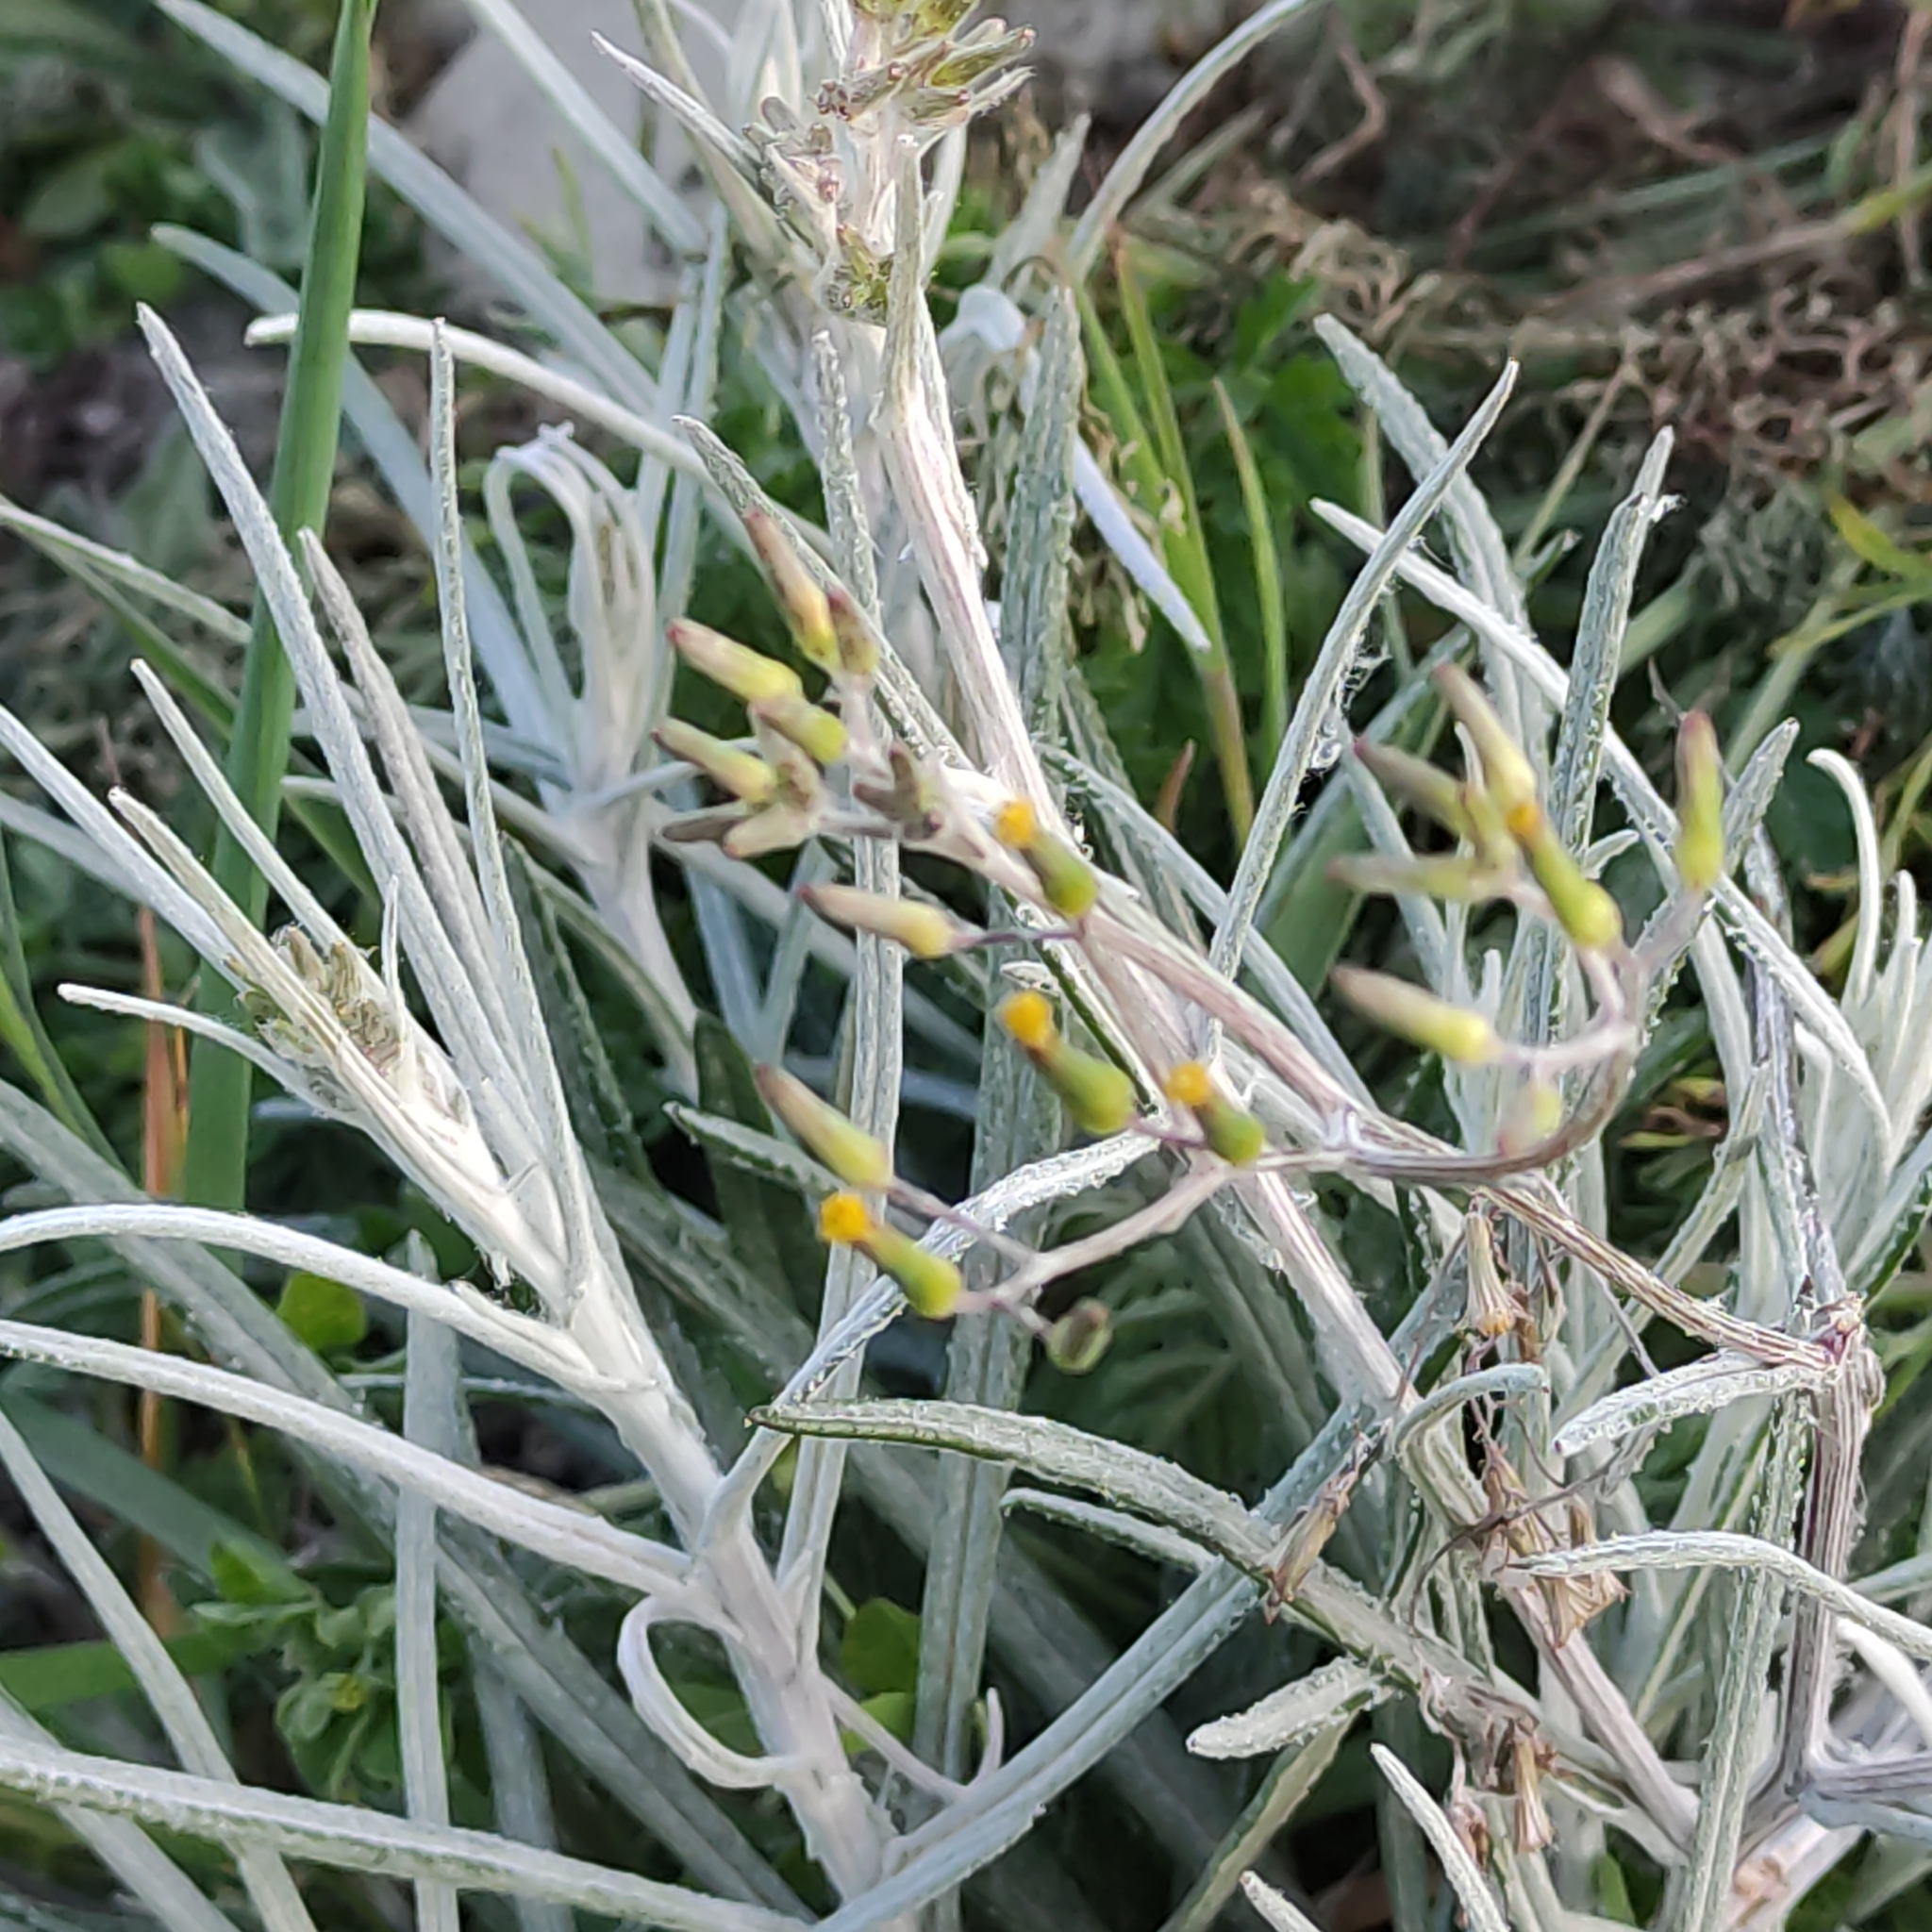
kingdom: Plantae
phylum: Tracheophyta
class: Magnoliopsida
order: Asterales
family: Asteraceae
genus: Senecio
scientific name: Senecio quadridentatus
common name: Cotton fireweed
